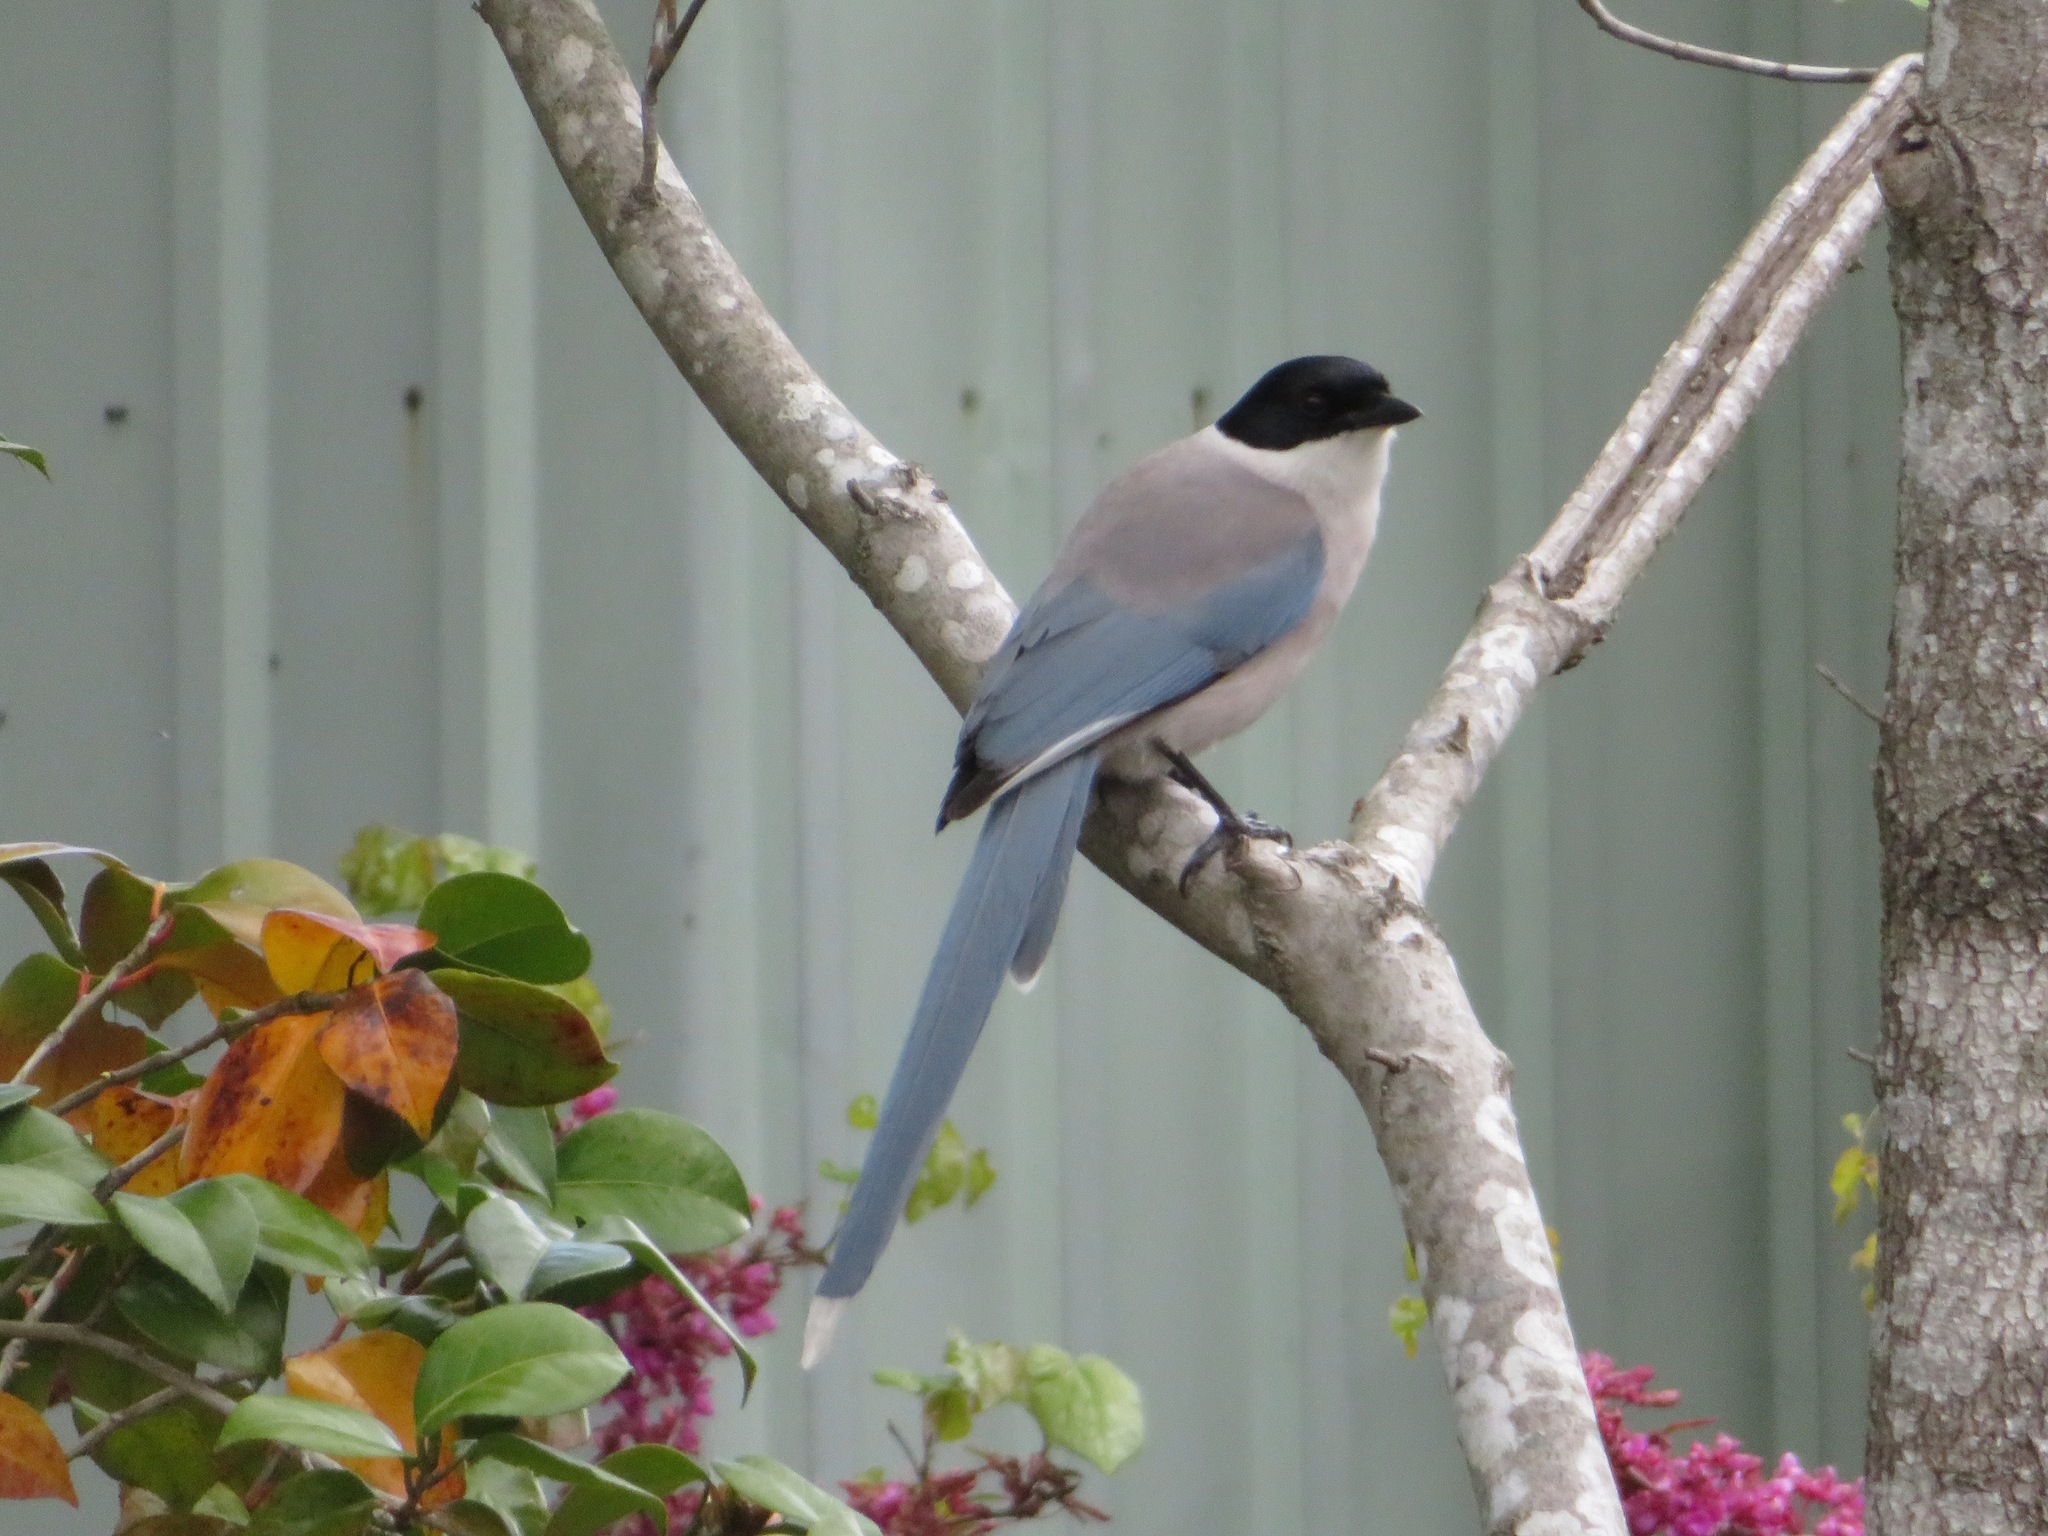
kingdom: Animalia
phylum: Chordata
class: Aves
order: Passeriformes
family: Corvidae
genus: Cyanopica
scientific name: Cyanopica cyanus
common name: Azure-winged magpie
